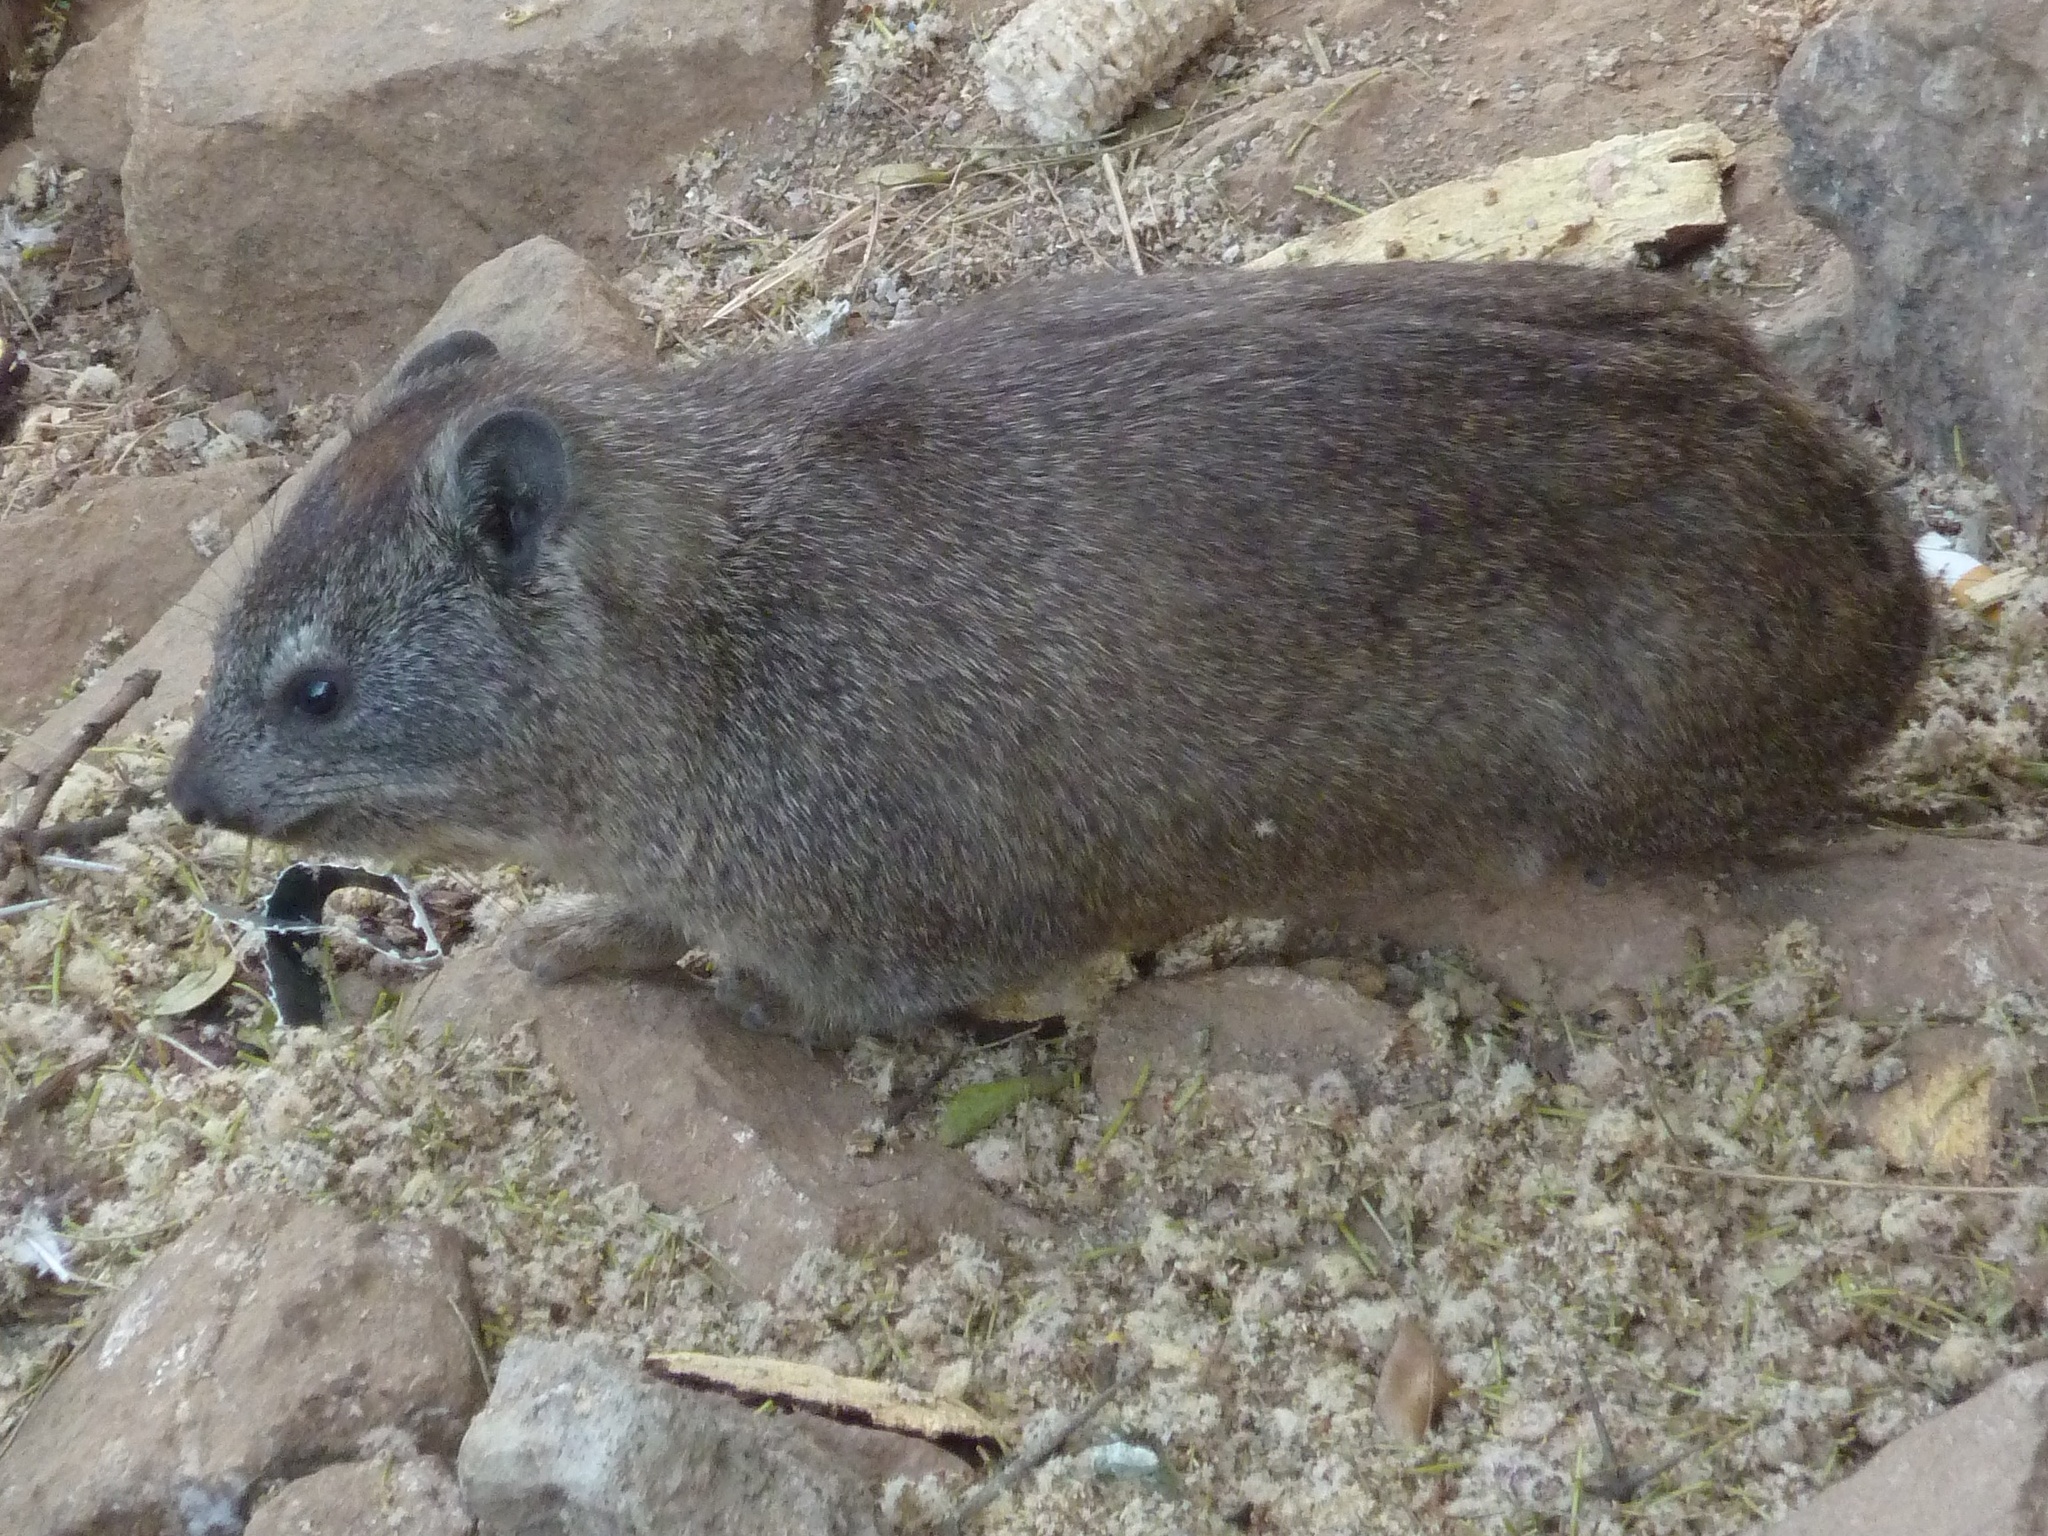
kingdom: Animalia
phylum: Chordata
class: Mammalia
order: Hyracoidea
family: Procaviidae
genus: Procavia
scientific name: Procavia capensis
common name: Rock hyrax
